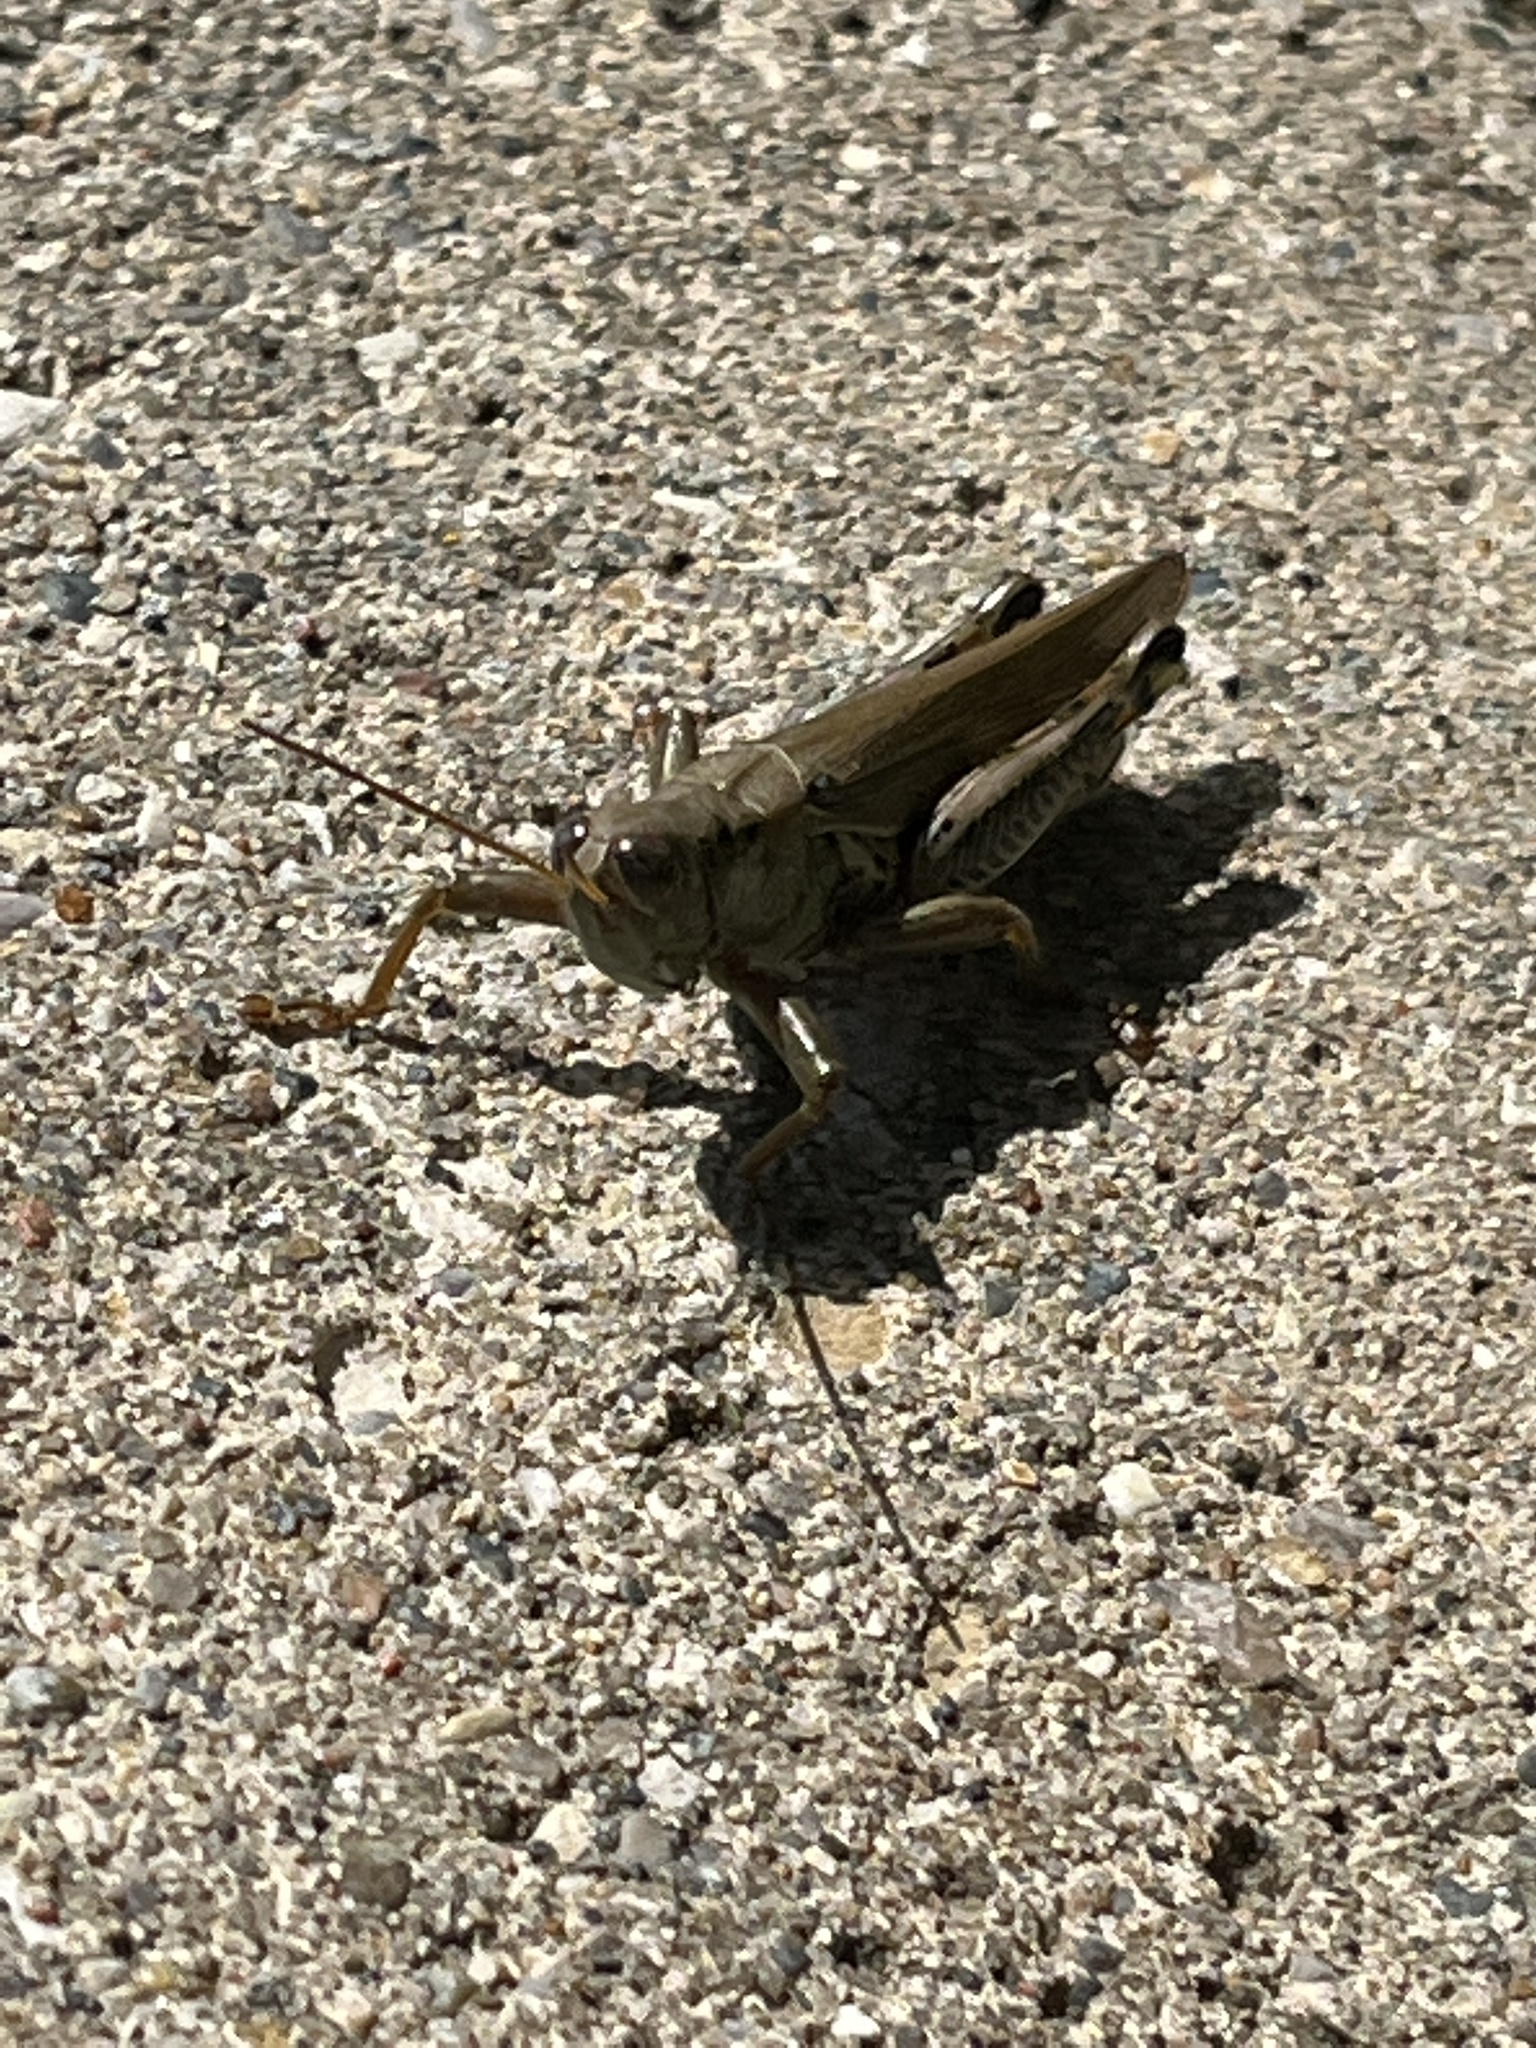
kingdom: Animalia
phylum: Arthropoda
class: Insecta
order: Orthoptera
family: Acrididae
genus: Melanoplus
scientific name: Melanoplus differentialis
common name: Differential grasshopper
